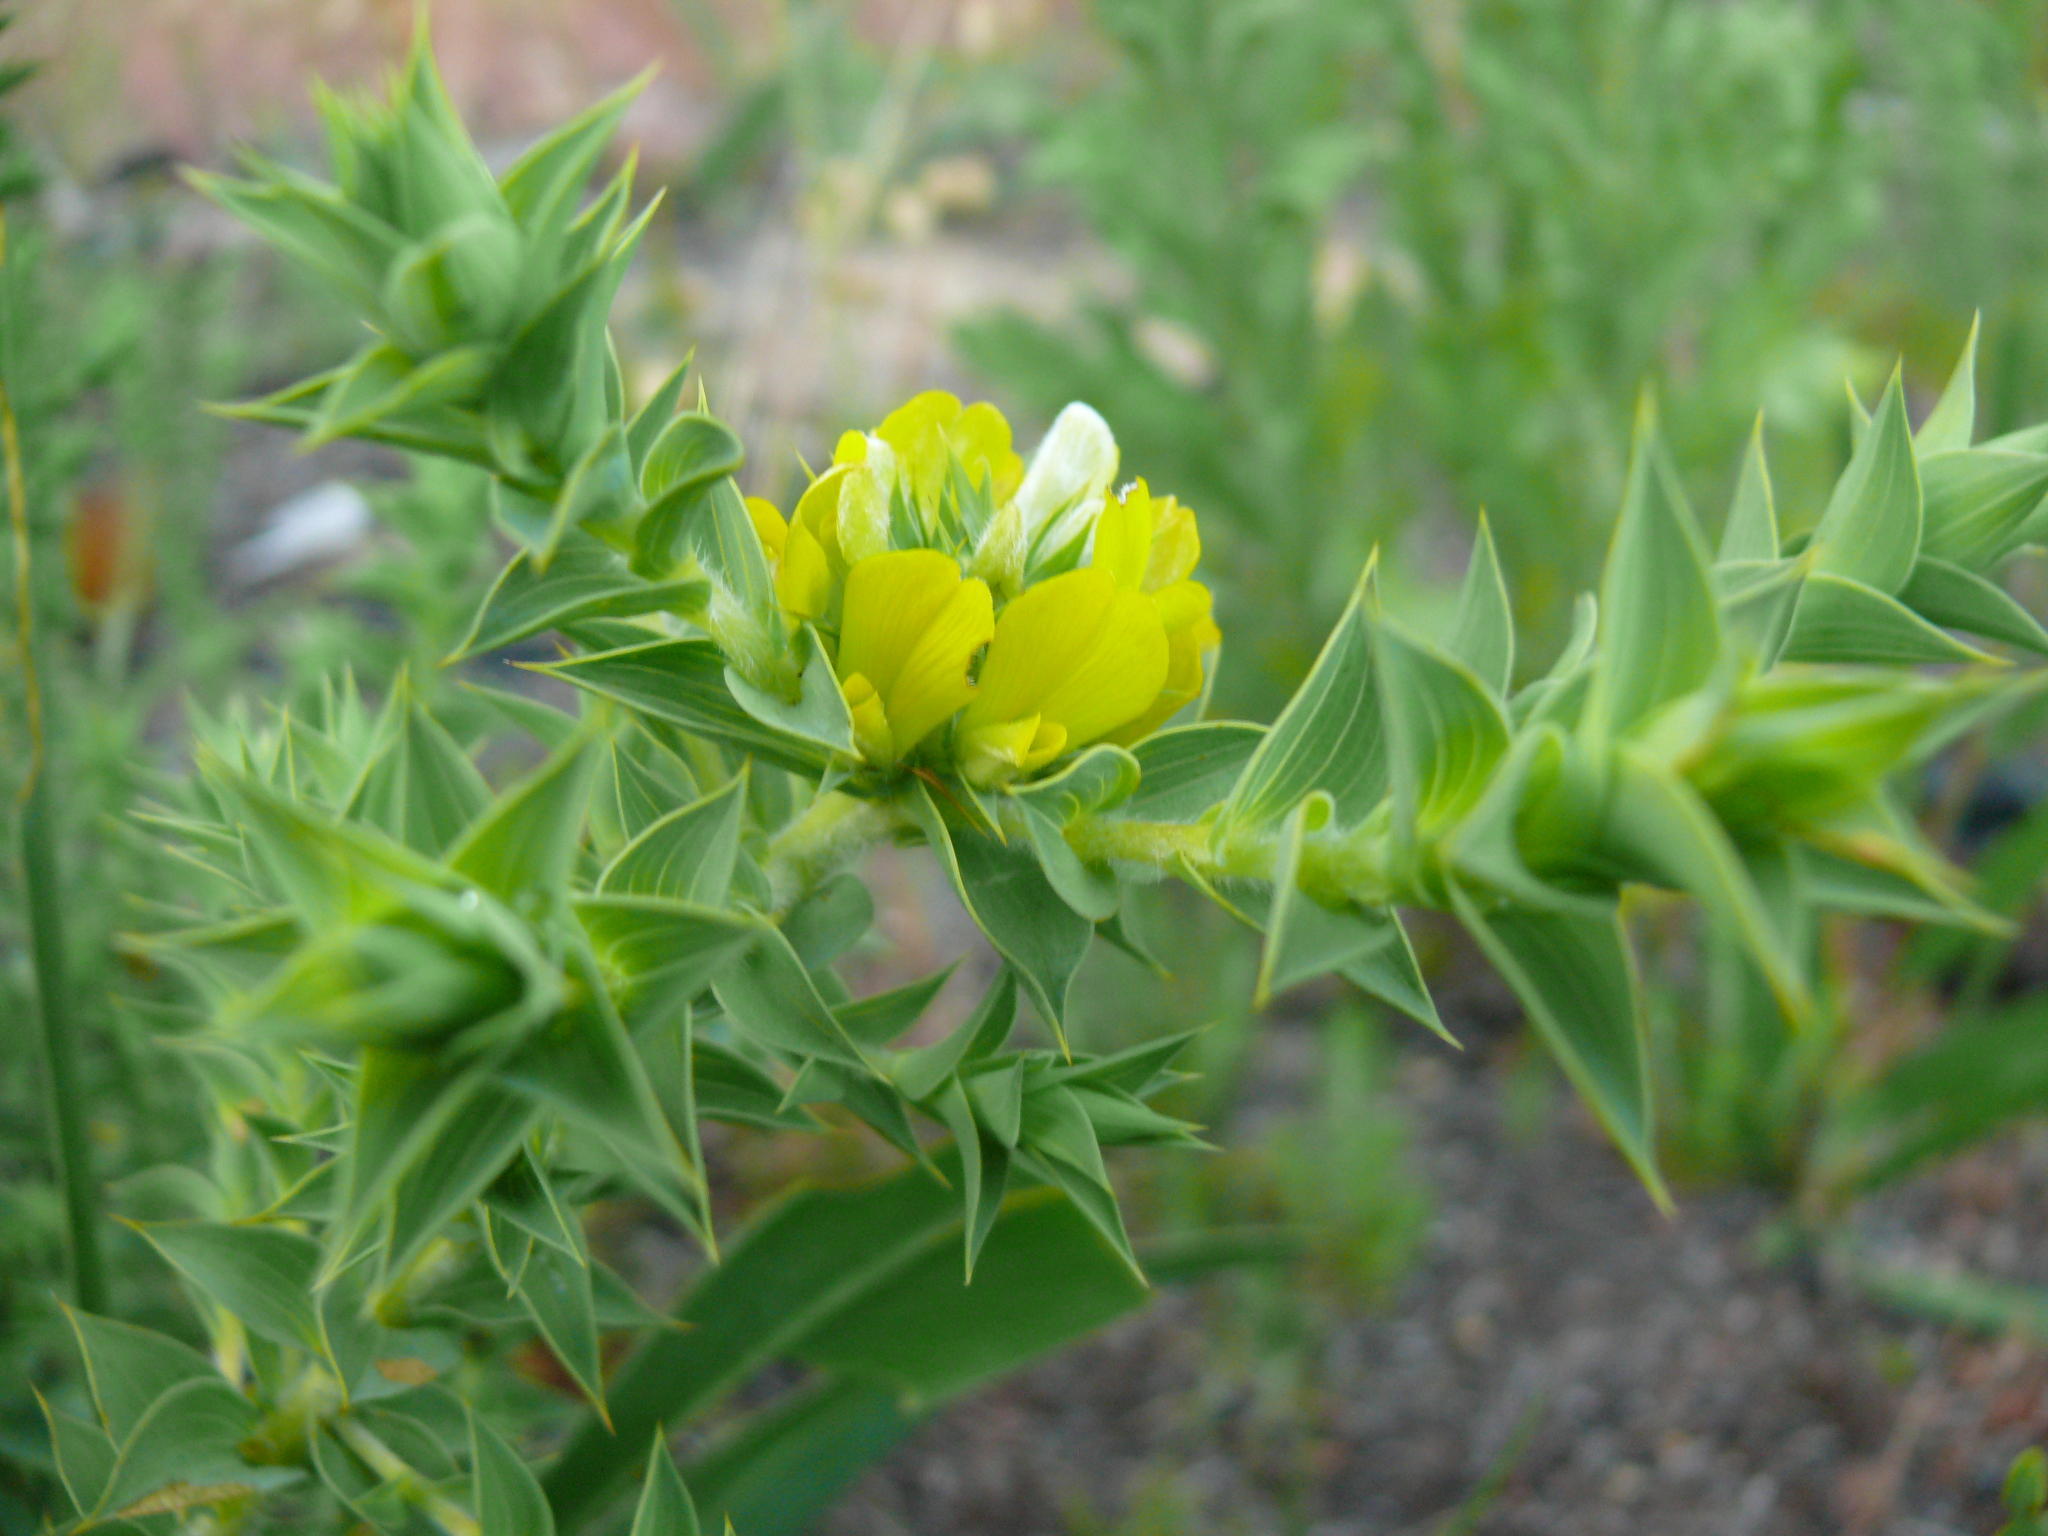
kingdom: Plantae
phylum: Tracheophyta
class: Magnoliopsida
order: Fabales
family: Fabaceae
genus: Aspalathus
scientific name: Aspalathus cordata
